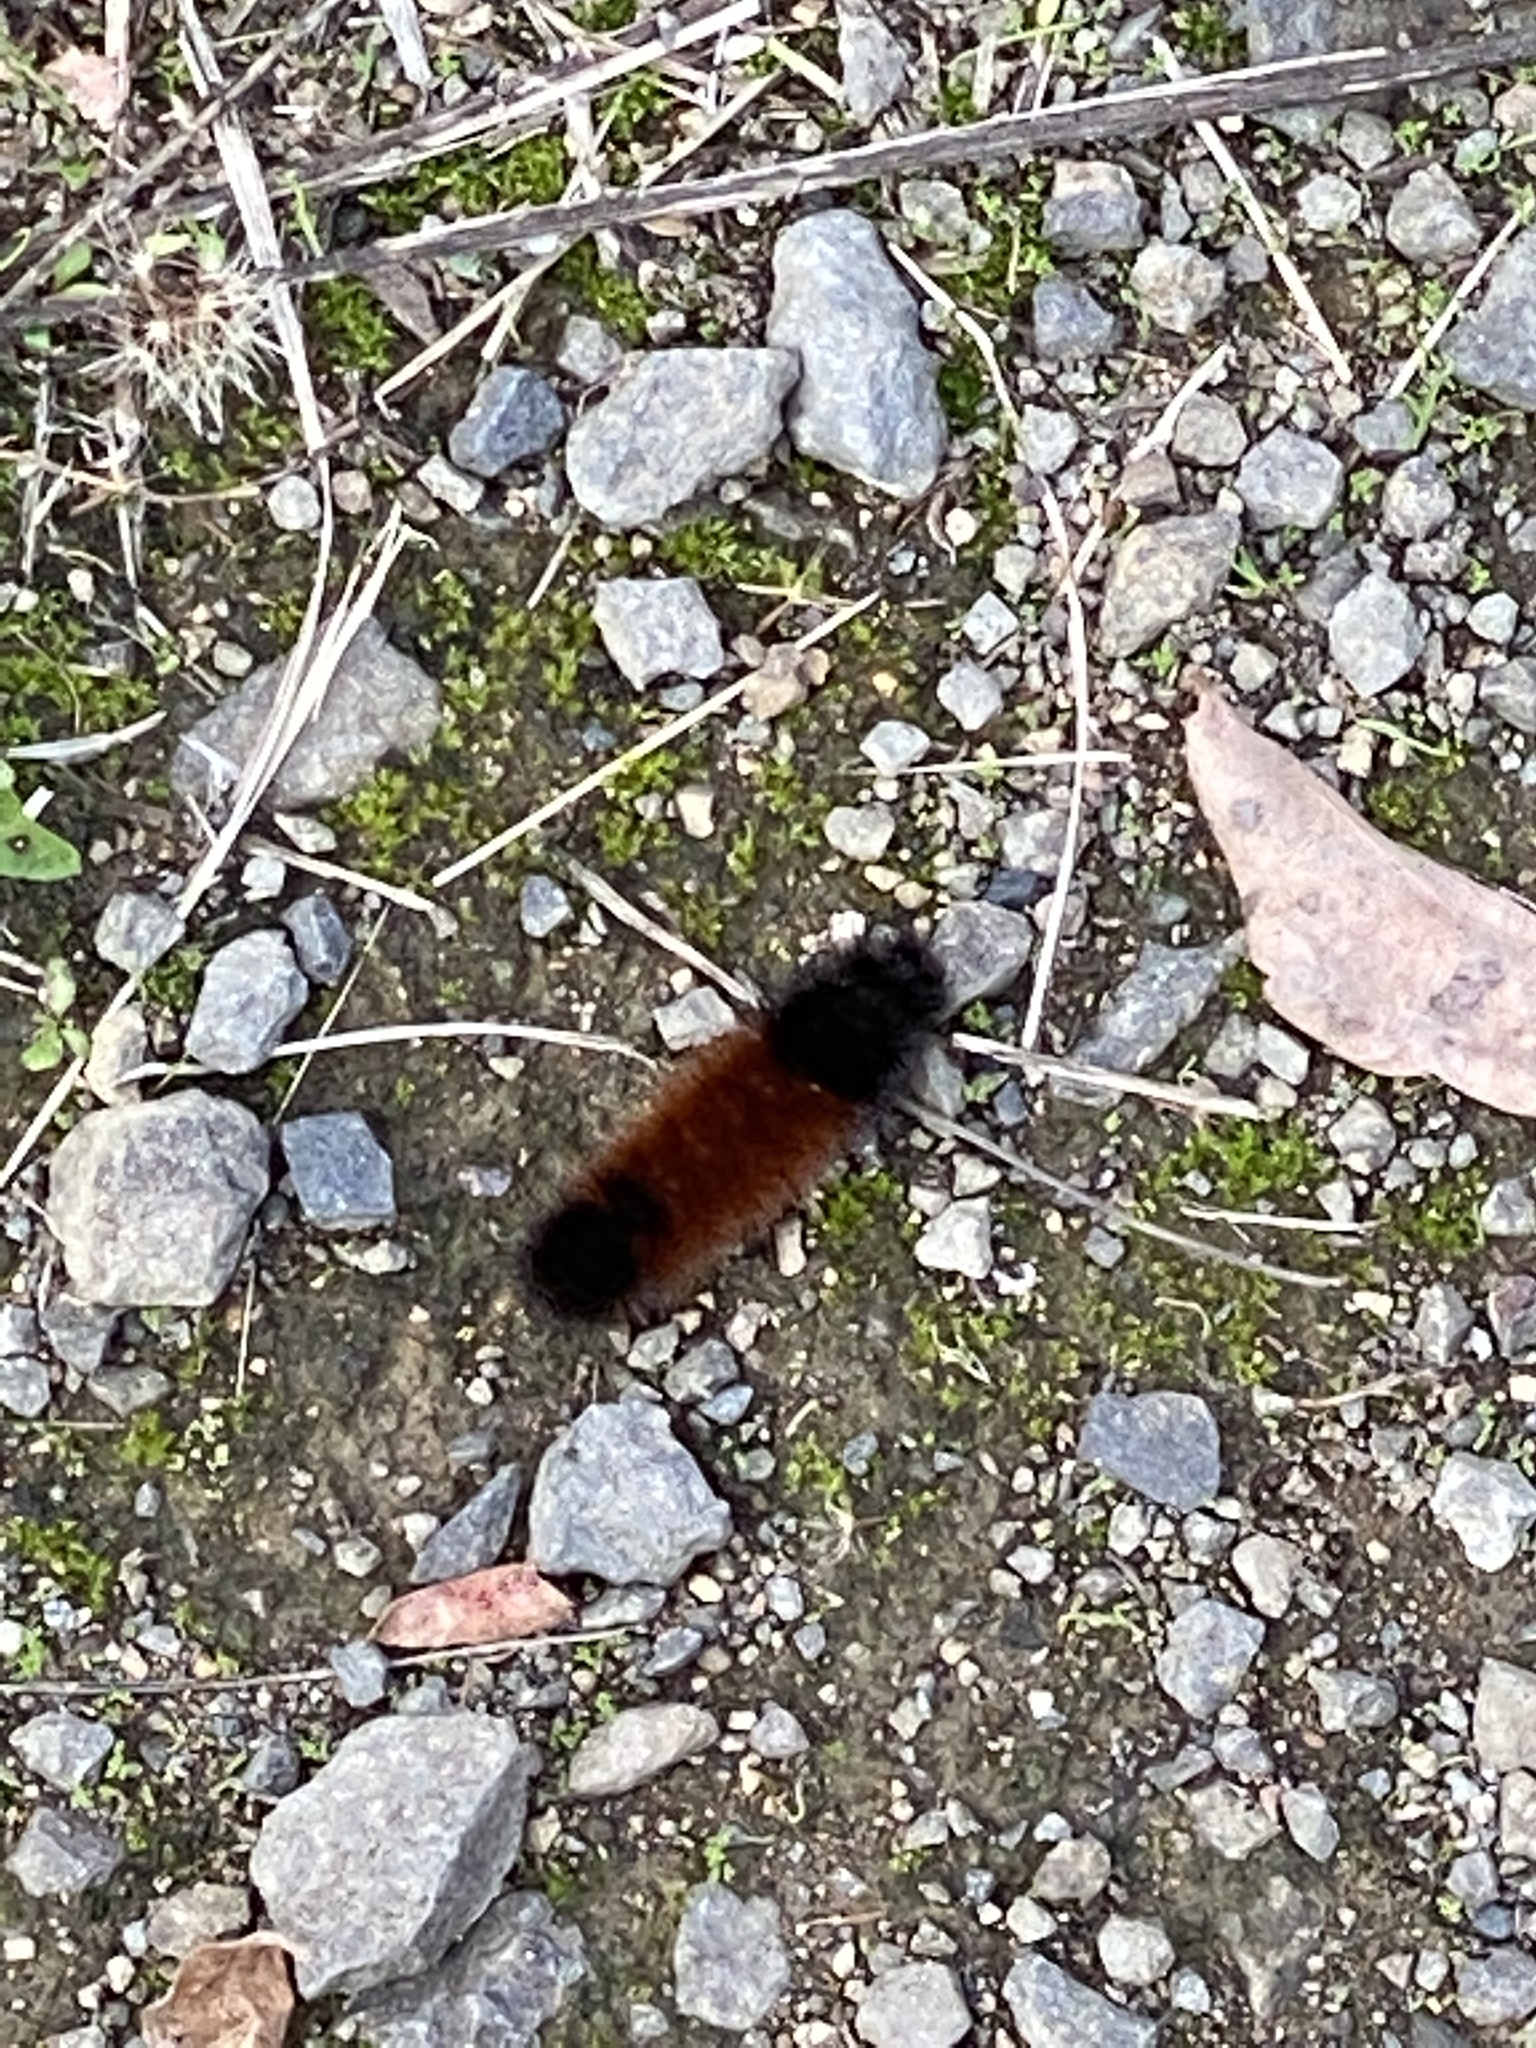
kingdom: Animalia
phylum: Arthropoda
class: Insecta
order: Lepidoptera
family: Erebidae
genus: Pyrrharctia
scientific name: Pyrrharctia isabella
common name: Isabella tiger moth
